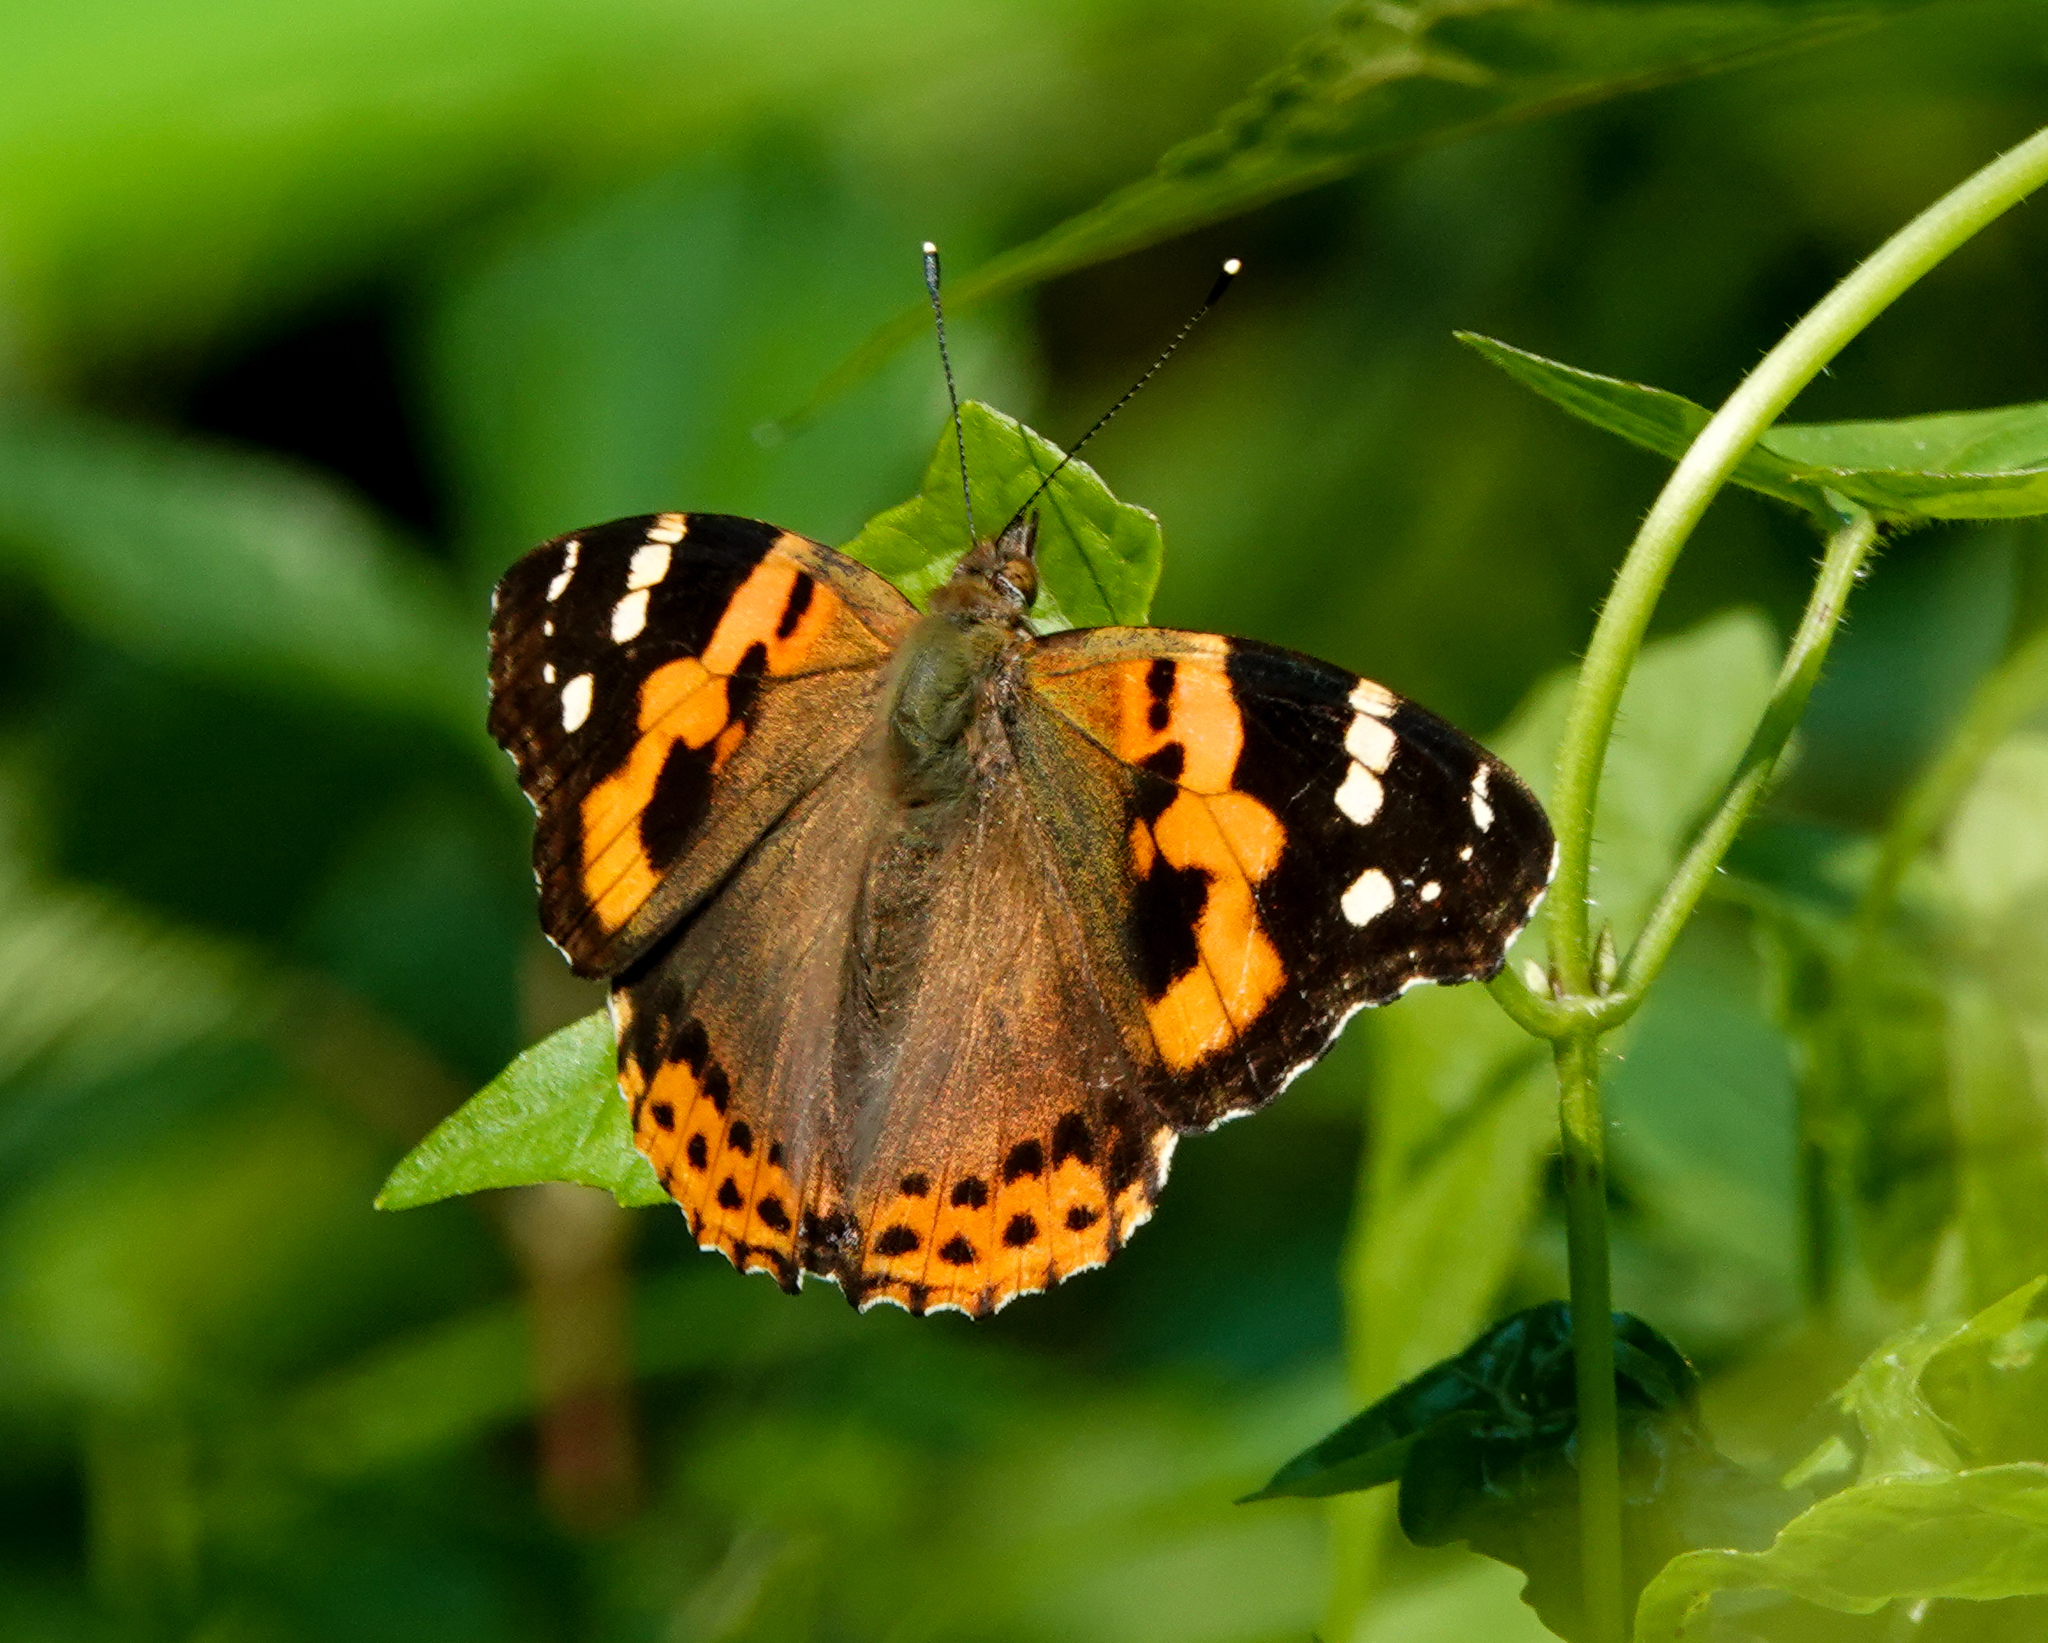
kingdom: Animalia
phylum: Arthropoda
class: Insecta
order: Lepidoptera
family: Nymphalidae
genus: Vanessa
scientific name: Vanessa indica
